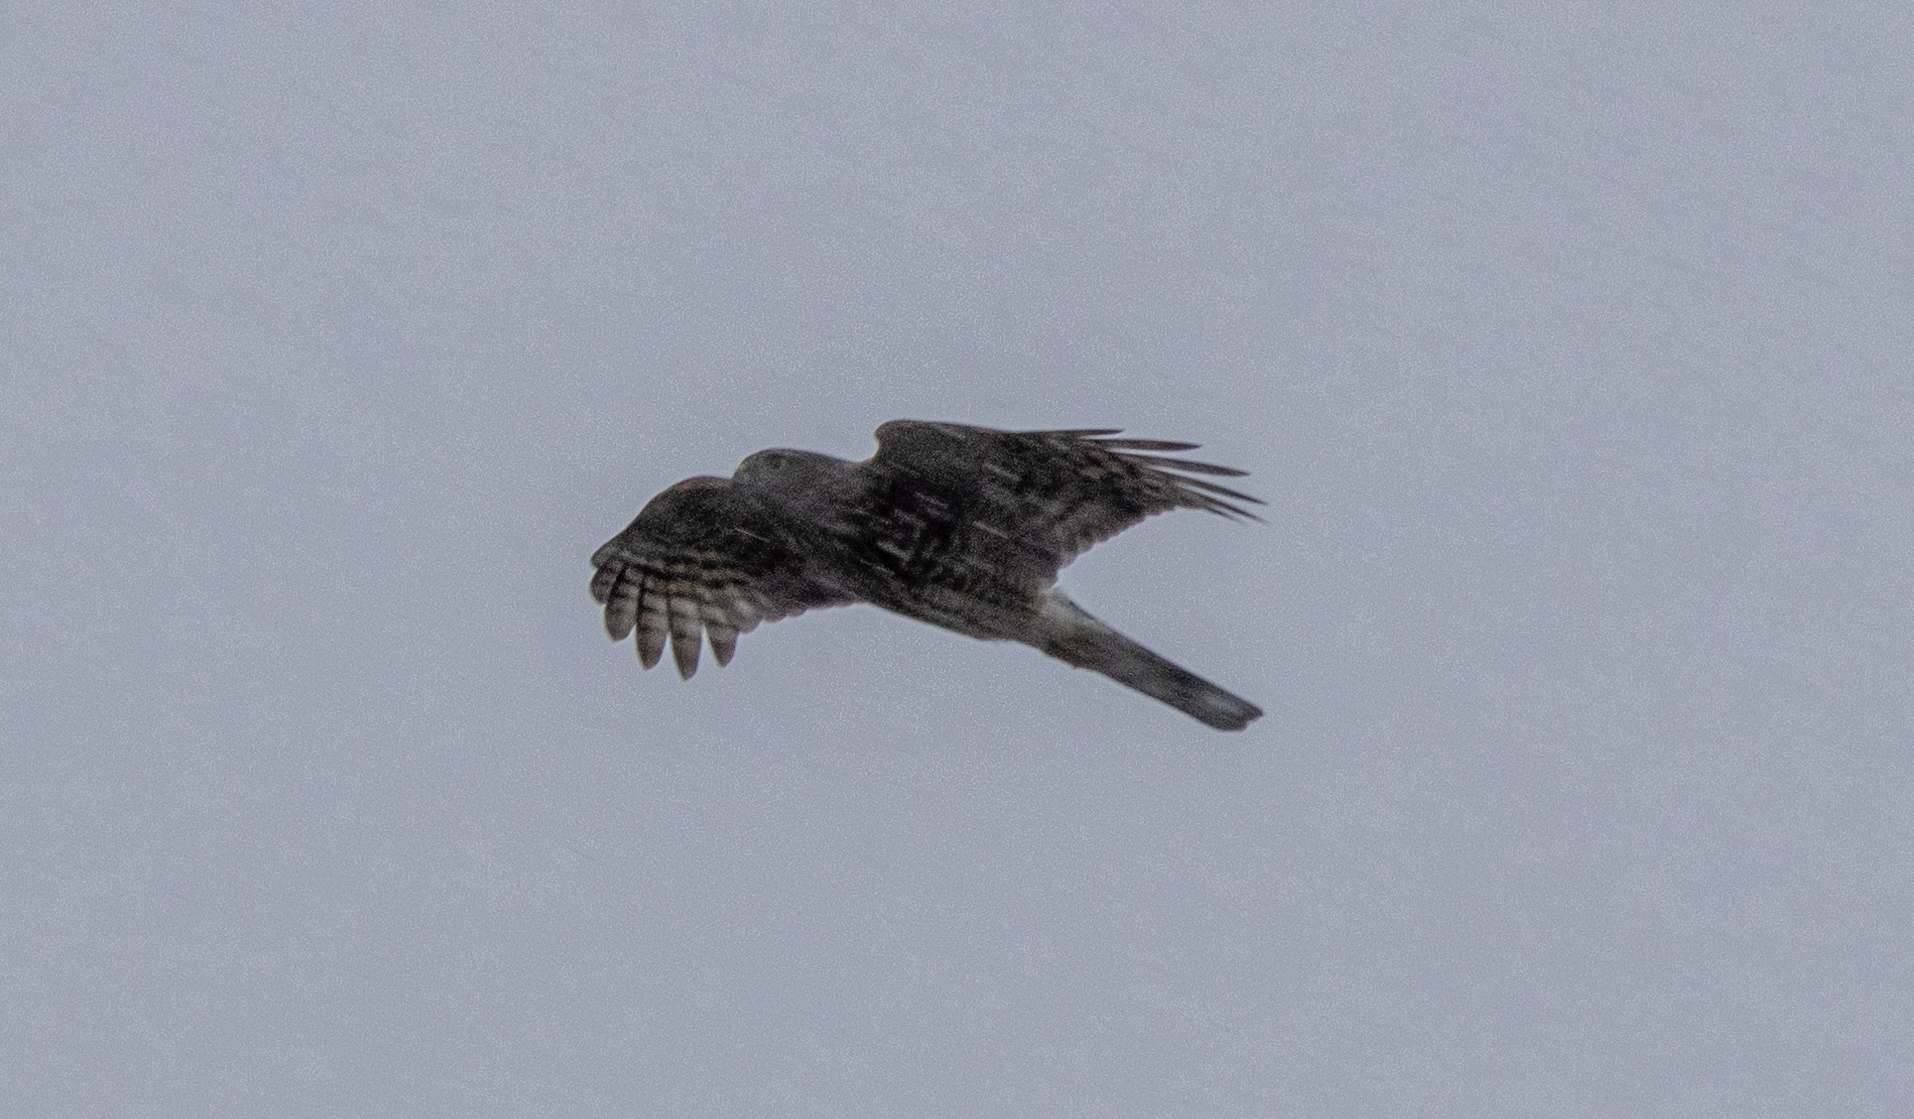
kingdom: Animalia
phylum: Chordata
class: Aves
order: Accipitriformes
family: Accipitridae
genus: Accipiter
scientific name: Accipiter cooperii
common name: Cooper's hawk
